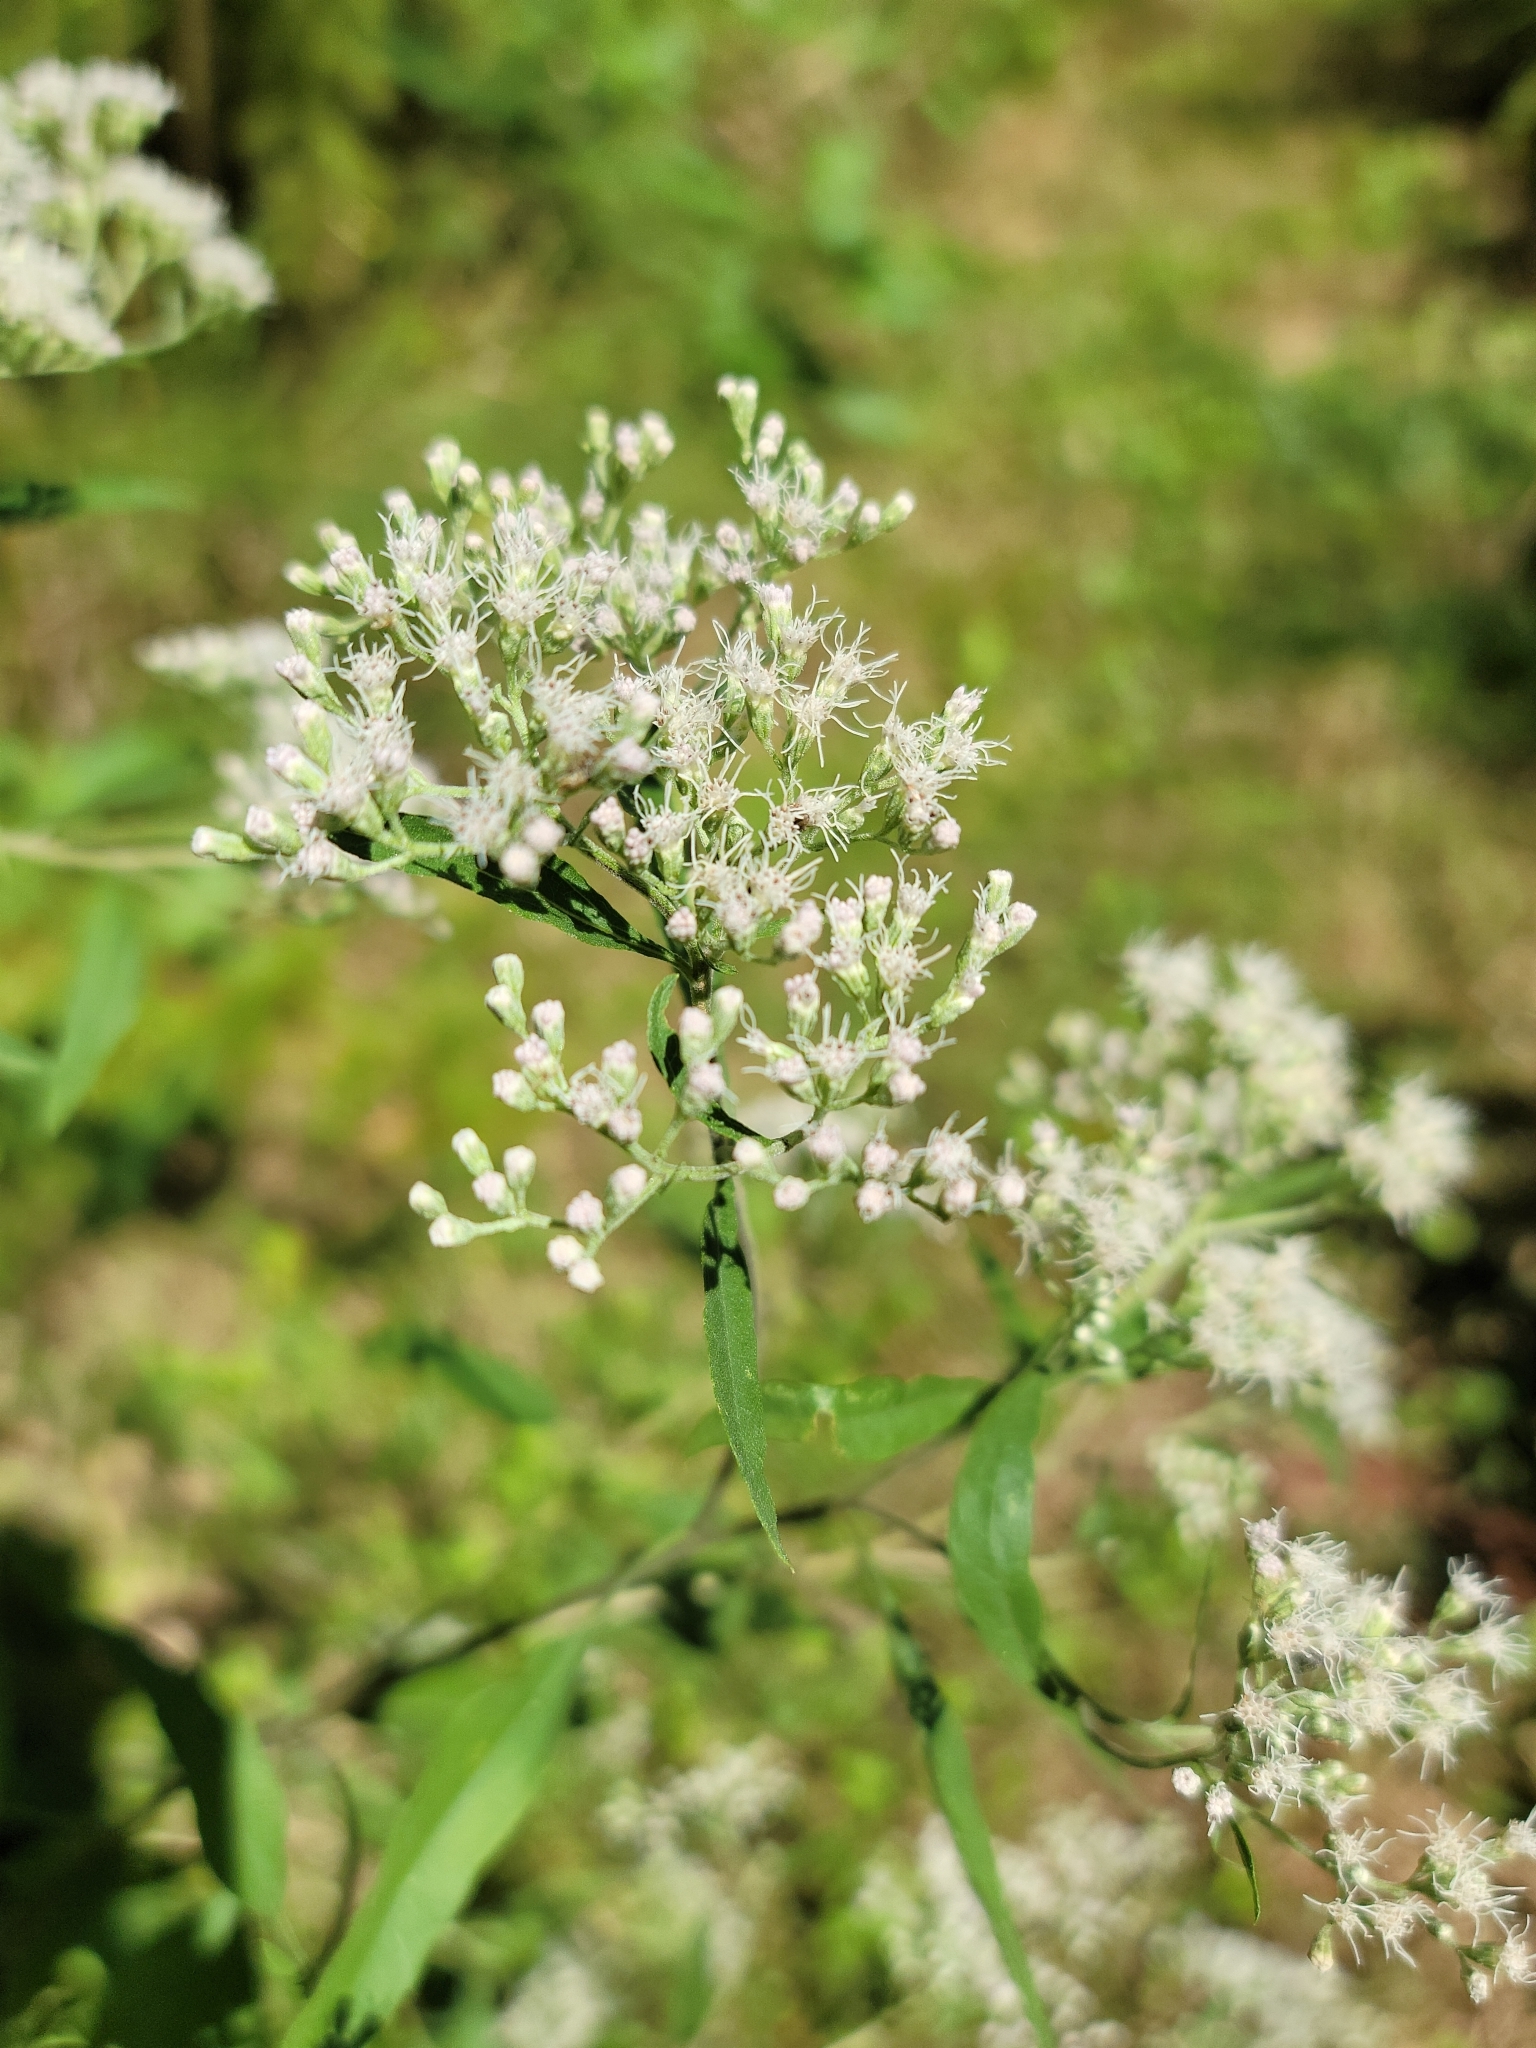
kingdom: Plantae
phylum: Tracheophyta
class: Magnoliopsida
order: Asterales
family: Asteraceae
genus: Eupatorium
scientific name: Eupatorium serotinum
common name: Late boneset
